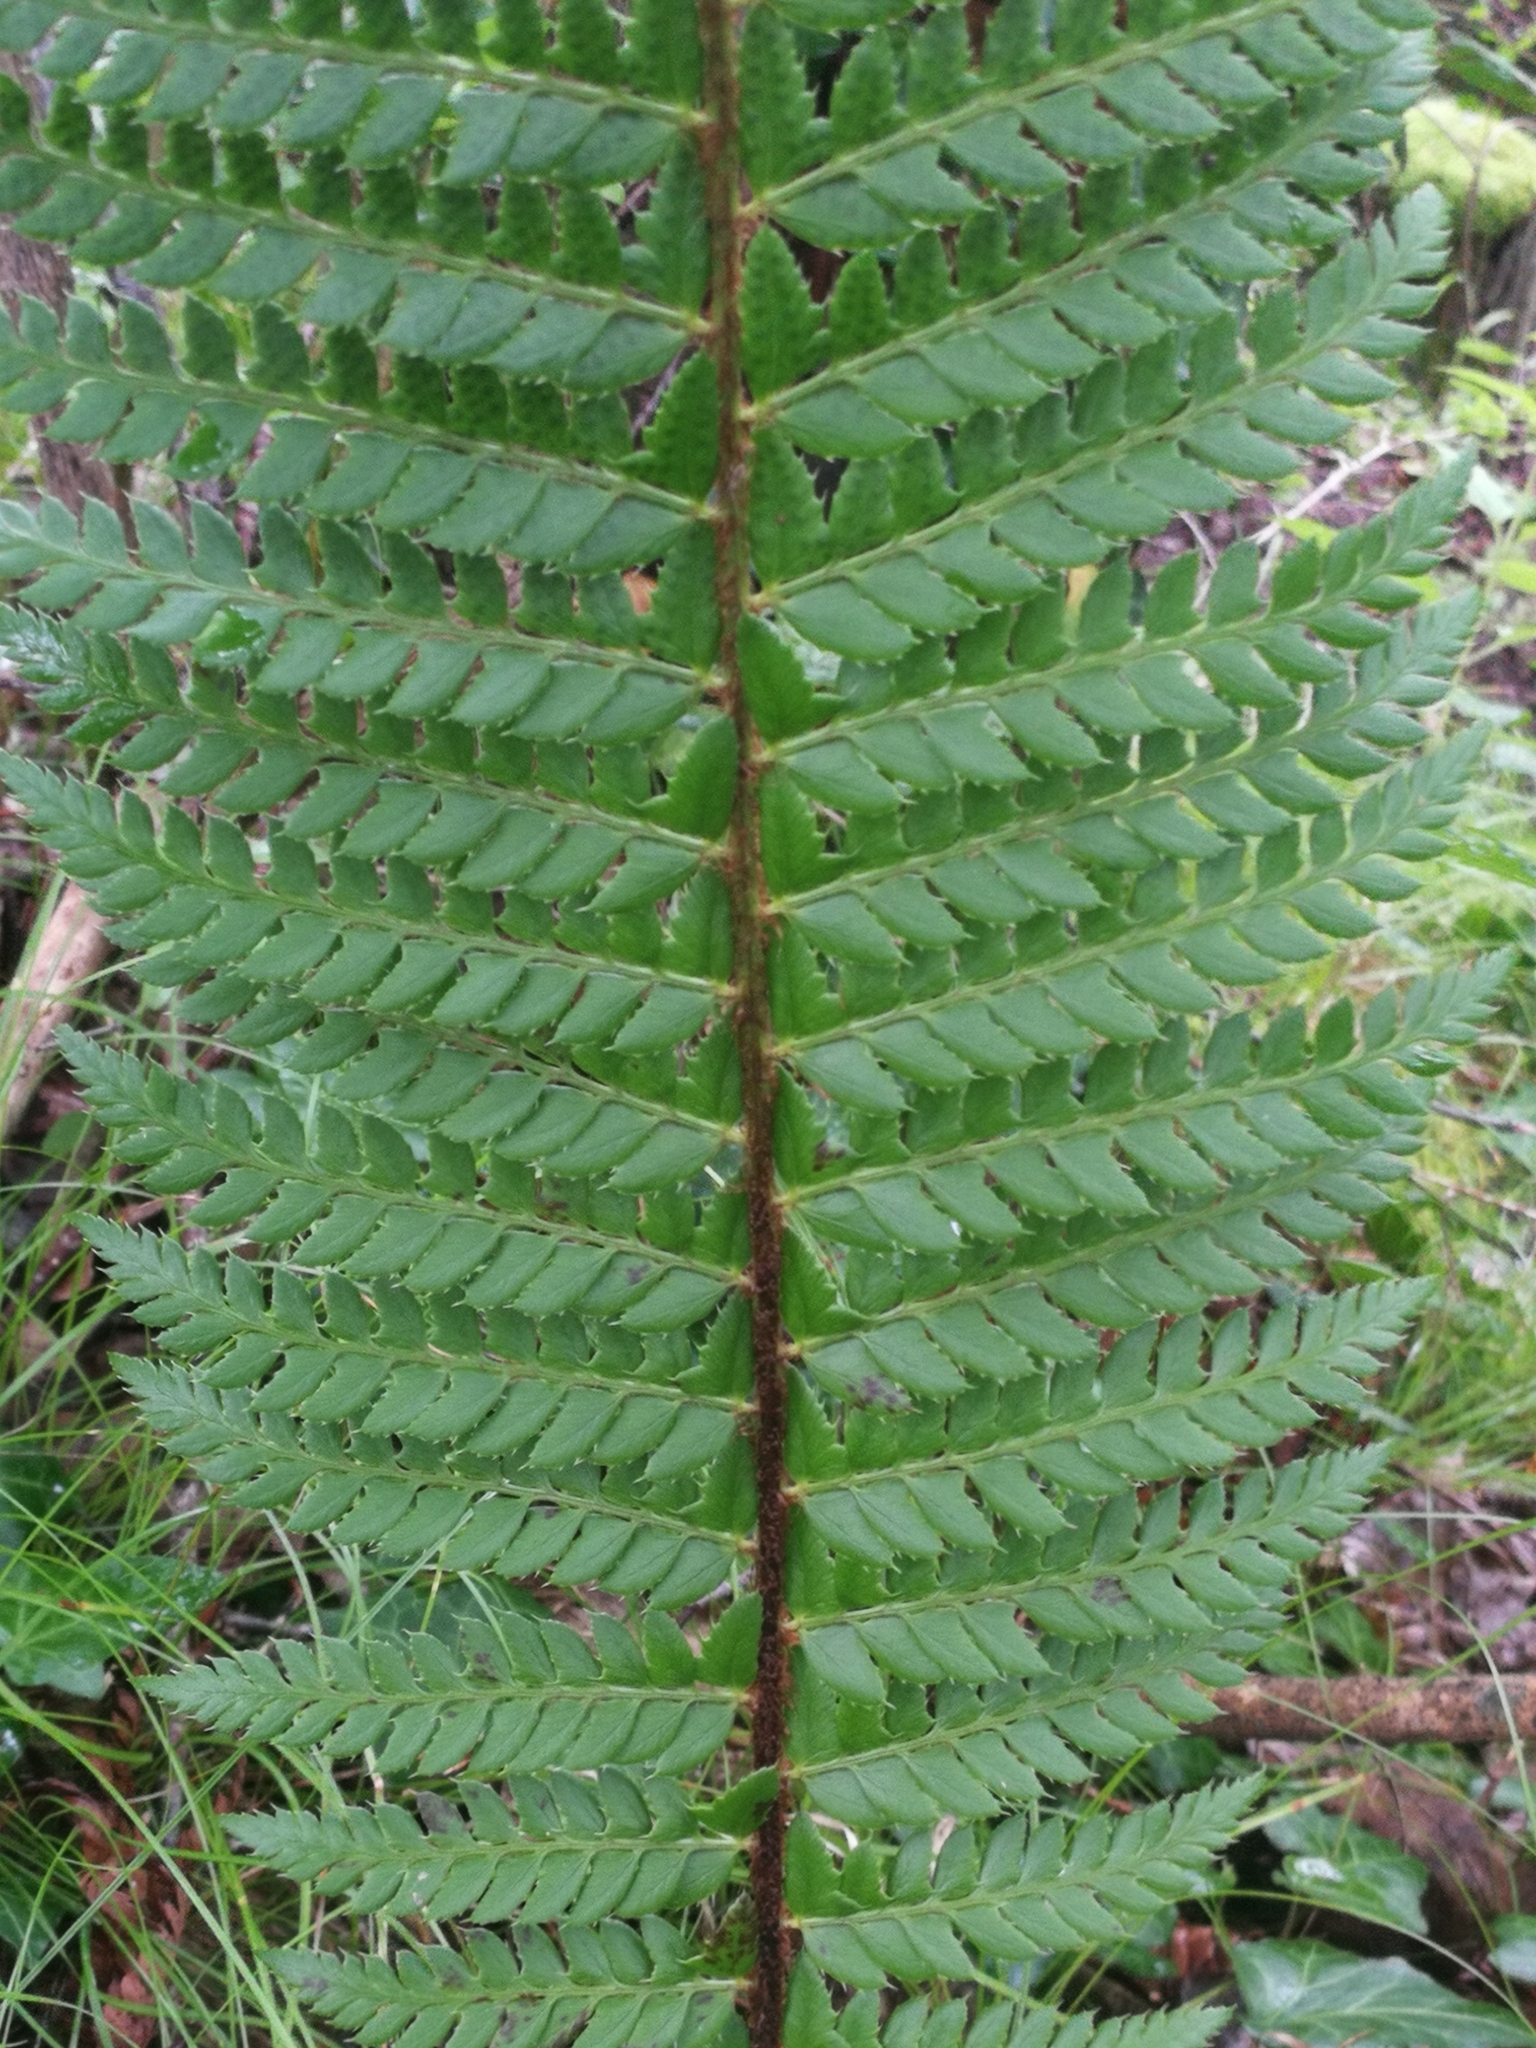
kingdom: Plantae
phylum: Tracheophyta
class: Polypodiopsida
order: Polypodiales
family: Dryopteridaceae
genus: Polystichum
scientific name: Polystichum aculeatum
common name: Hard shield-fern
